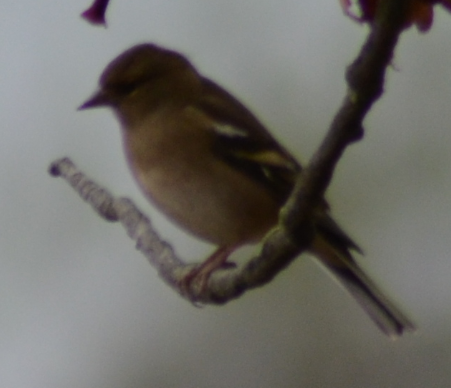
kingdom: Animalia
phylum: Chordata
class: Aves
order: Passeriformes
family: Fringillidae
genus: Fringilla
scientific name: Fringilla coelebs
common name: Common chaffinch
